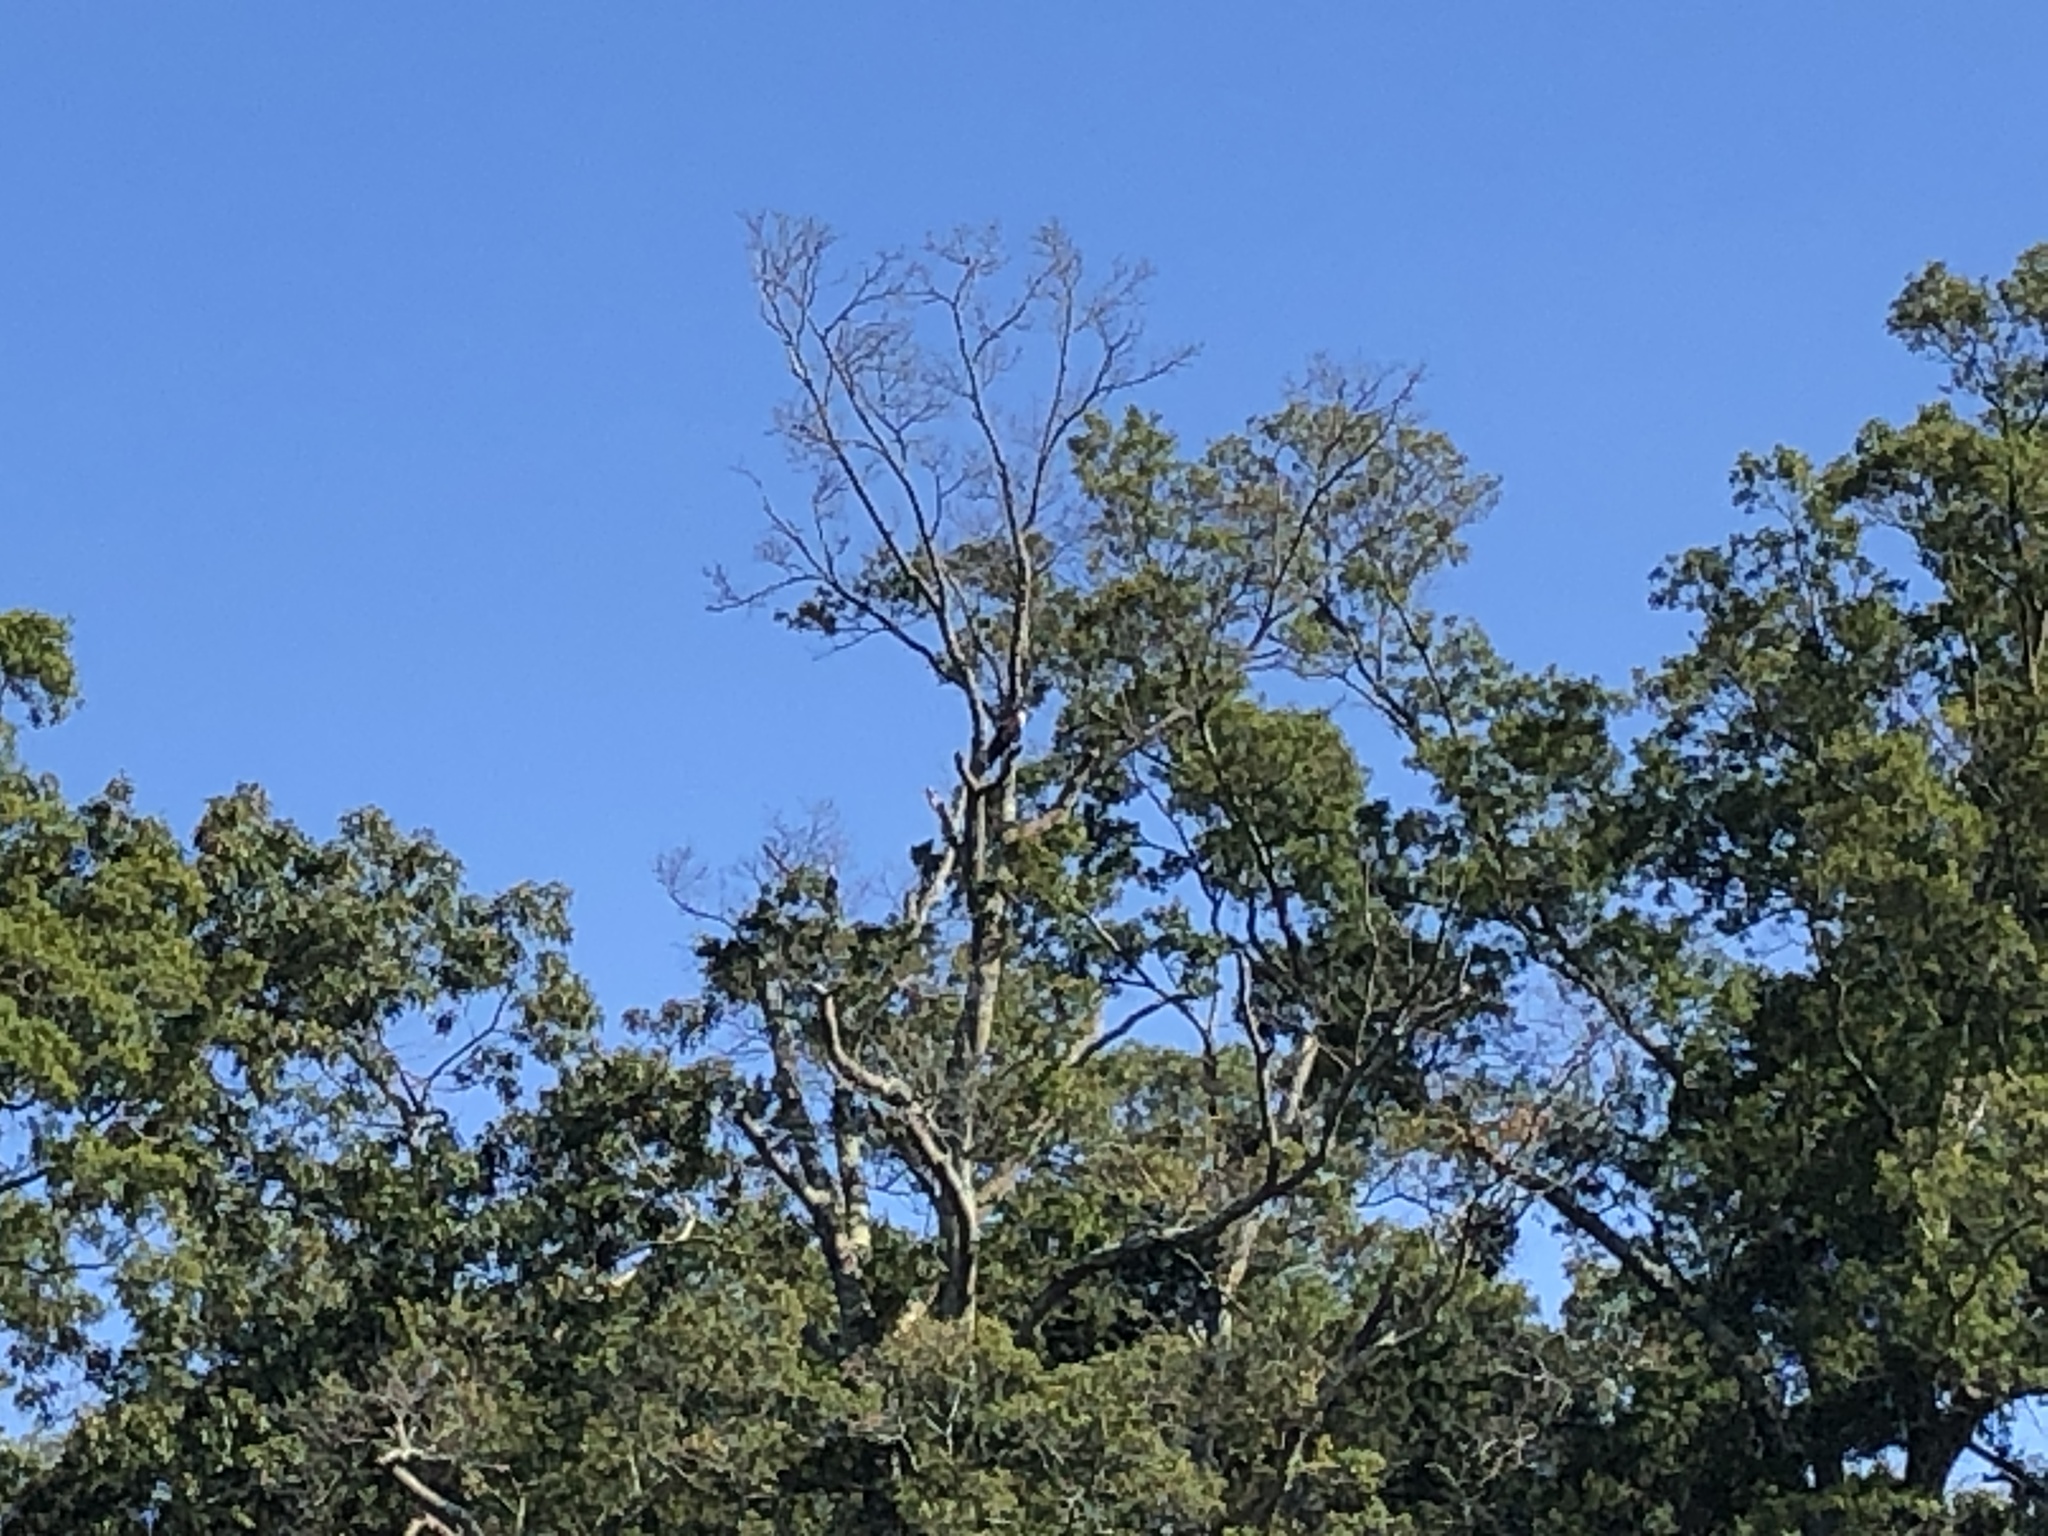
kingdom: Animalia
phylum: Chordata
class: Aves
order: Accipitriformes
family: Pandionidae
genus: Pandion
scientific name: Pandion haliaetus
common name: Osprey
